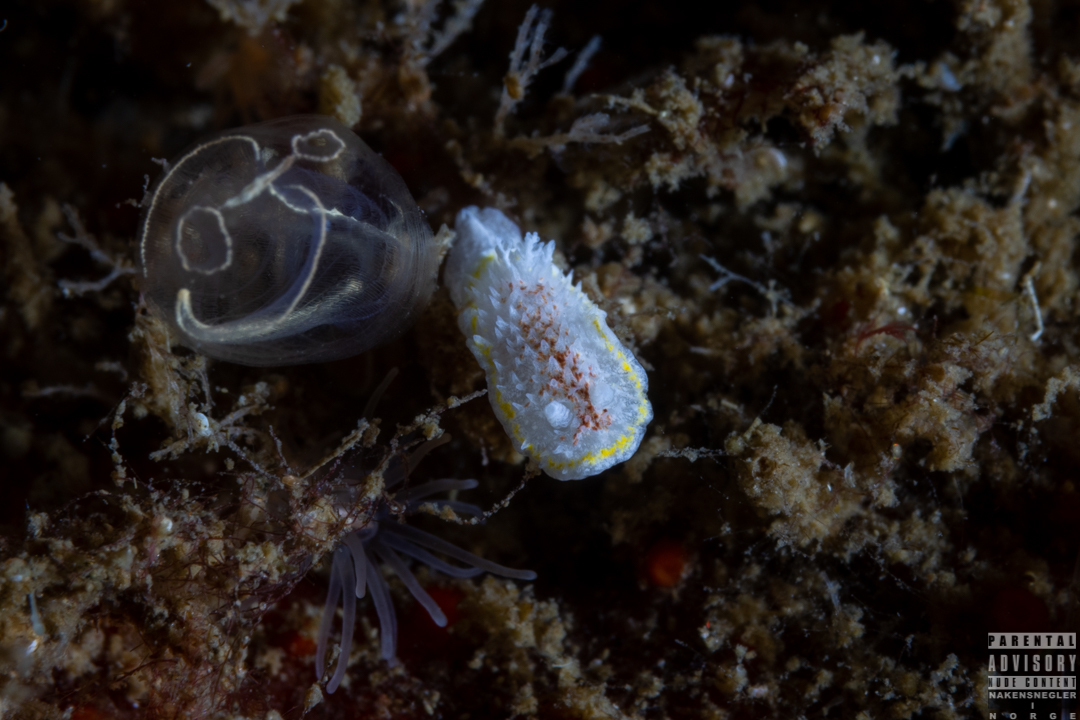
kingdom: Animalia
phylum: Mollusca
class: Gastropoda
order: Nudibranchia
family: Calycidorididae
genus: Diaphorodoris
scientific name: Diaphorodoris luteocincta
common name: Fried egg nudibranch
